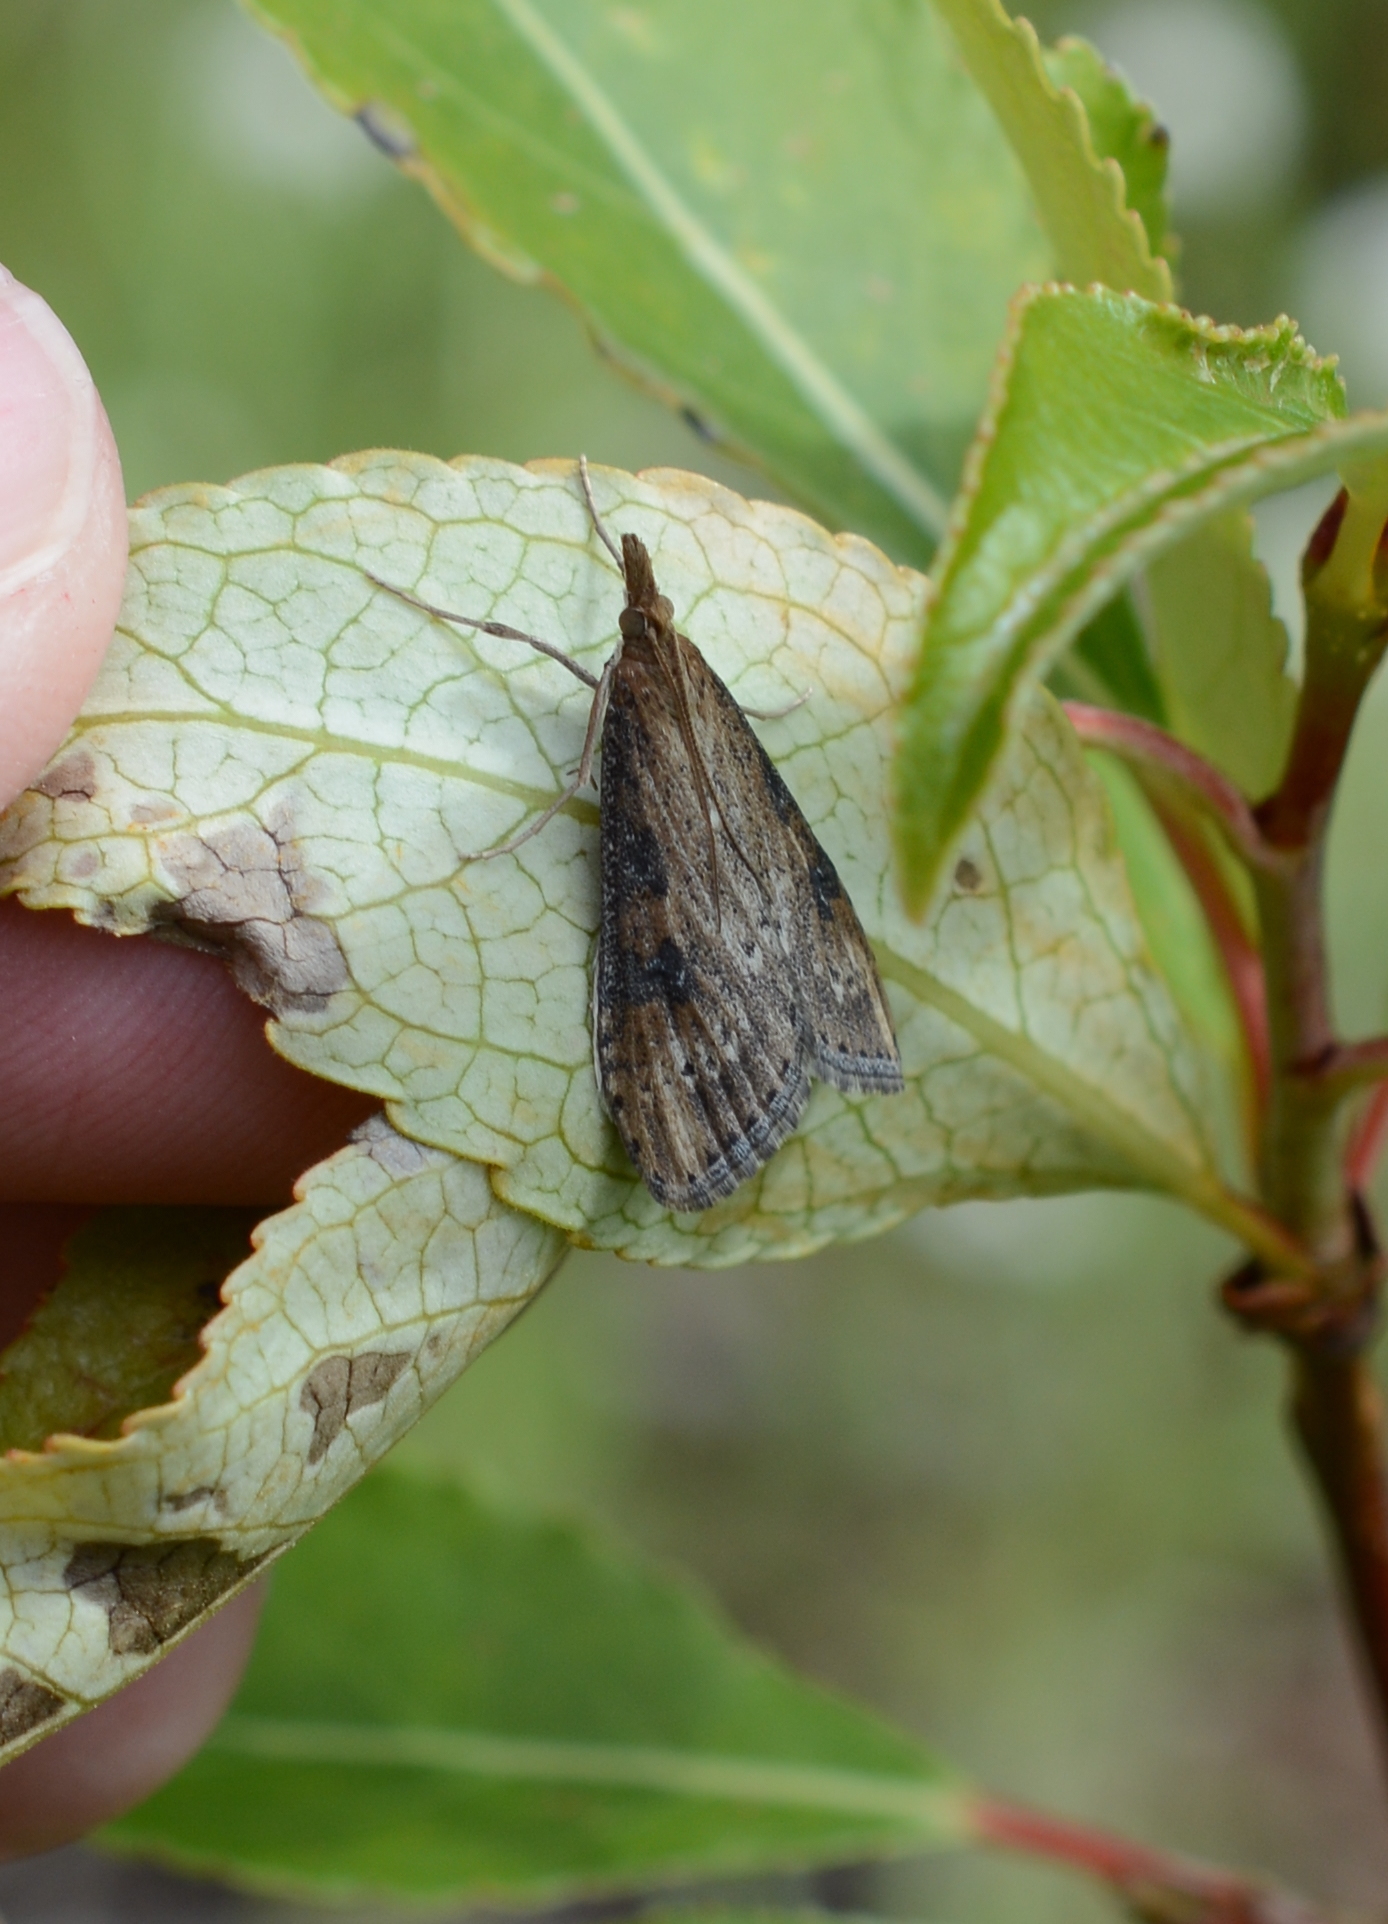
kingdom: Animalia
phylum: Arthropoda
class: Insecta
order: Lepidoptera
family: Crambidae
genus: Udea
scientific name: Udea turmalis
